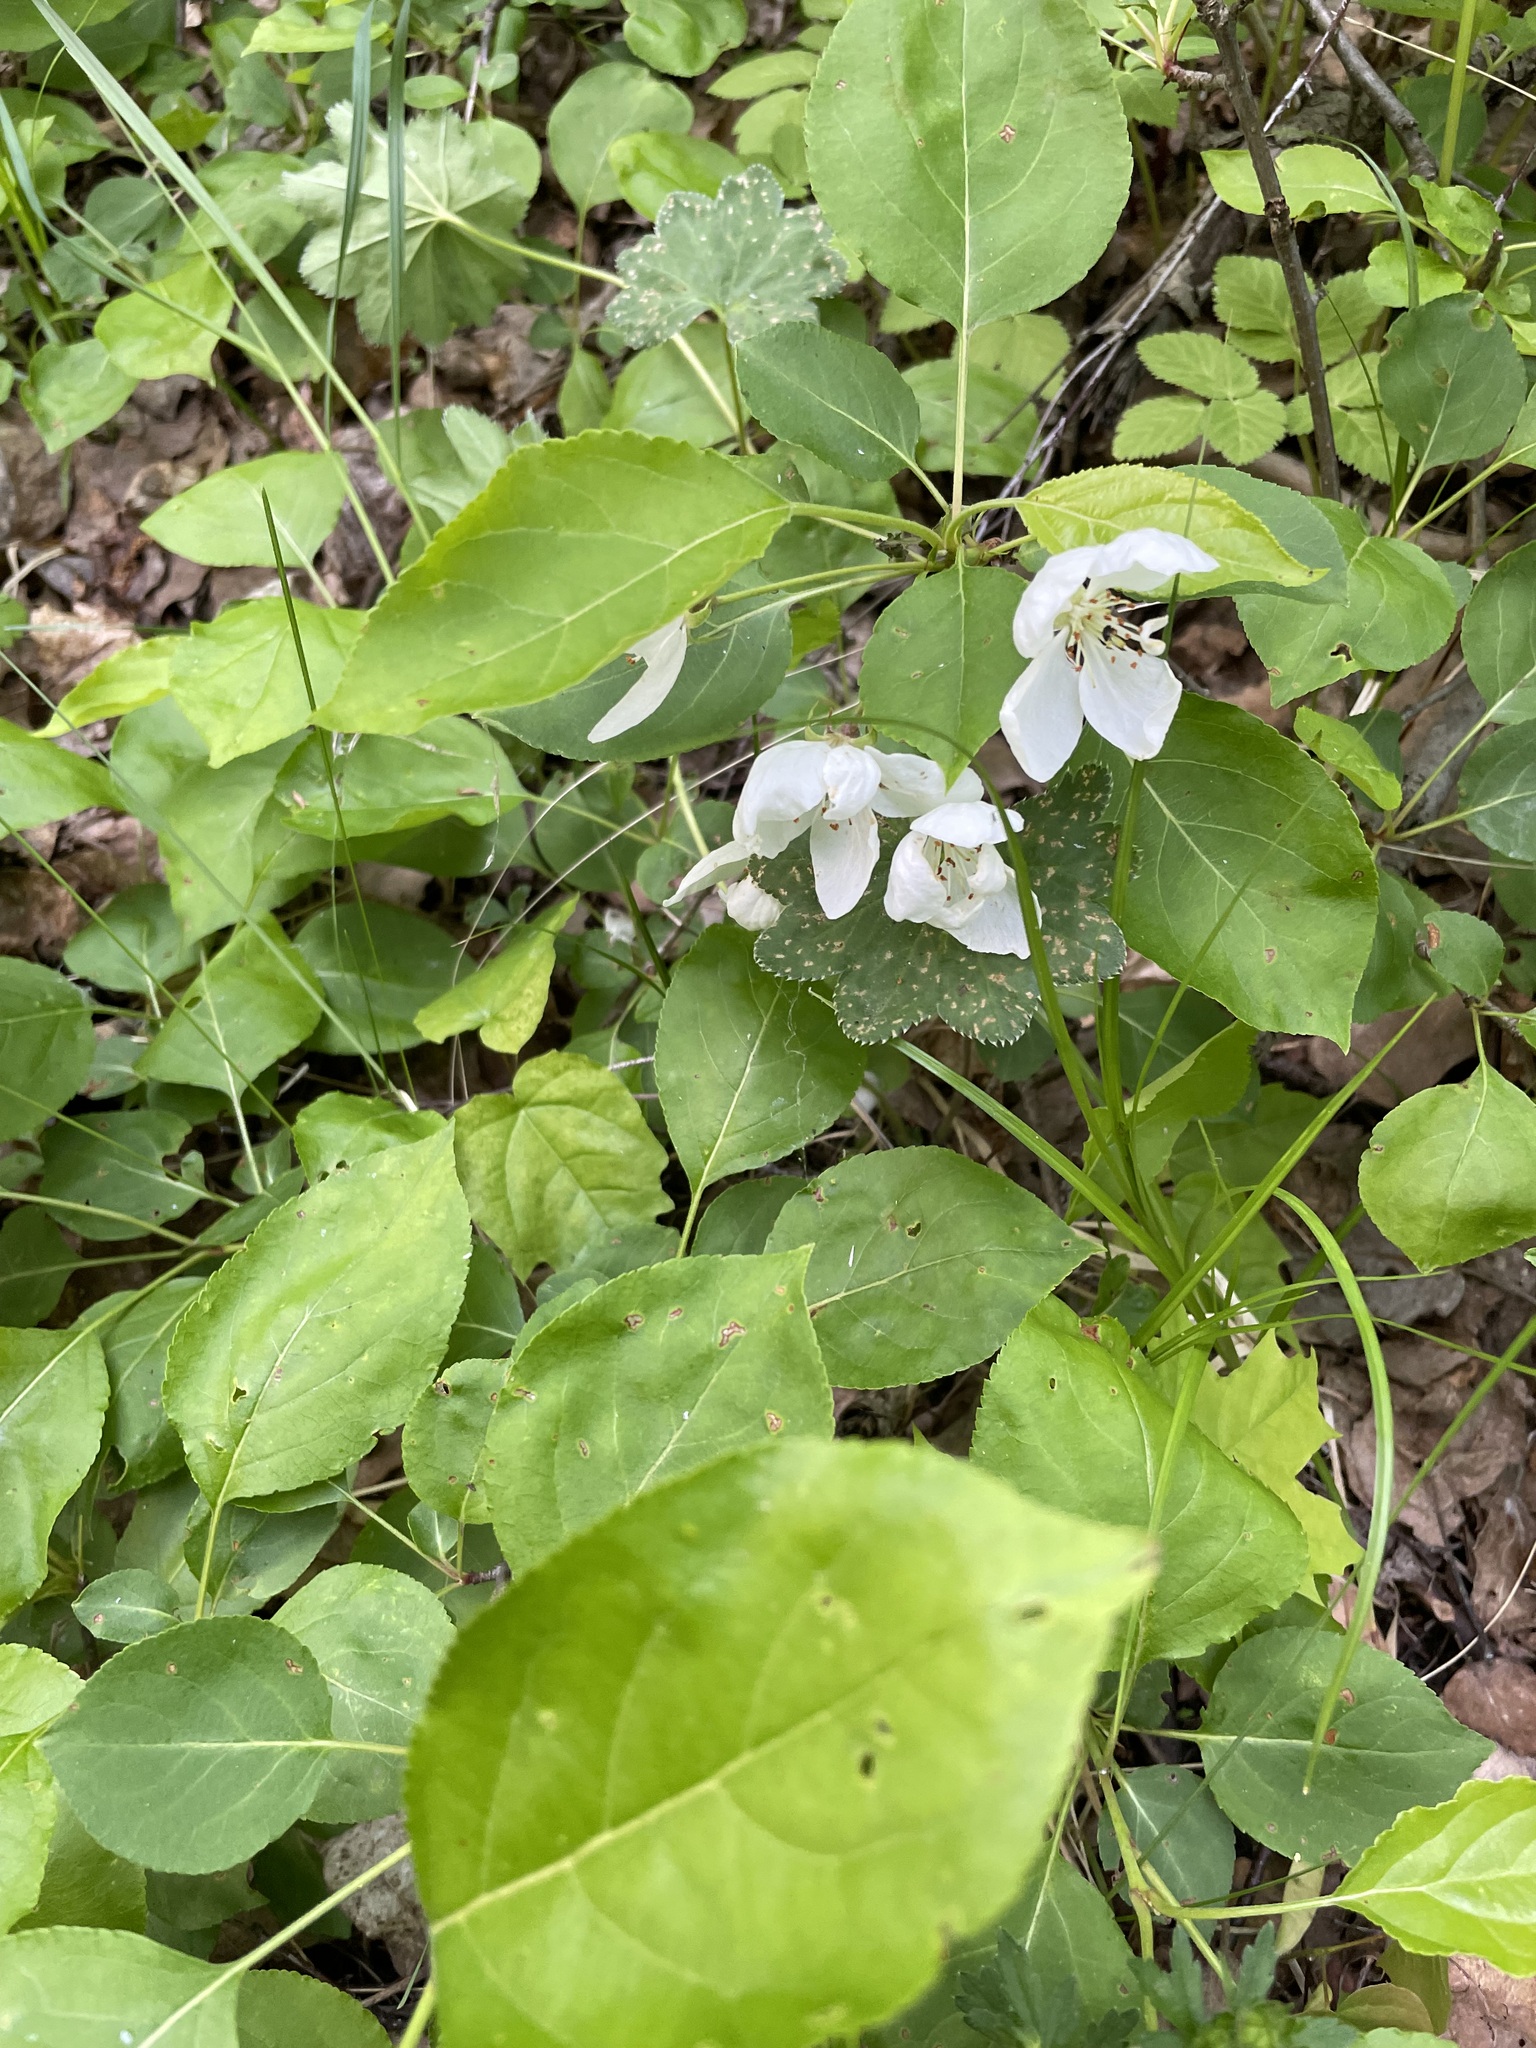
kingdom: Plantae
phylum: Tracheophyta
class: Magnoliopsida
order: Rosales
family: Rosaceae
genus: Malus
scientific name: Malus sylvestris
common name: Crab apple
